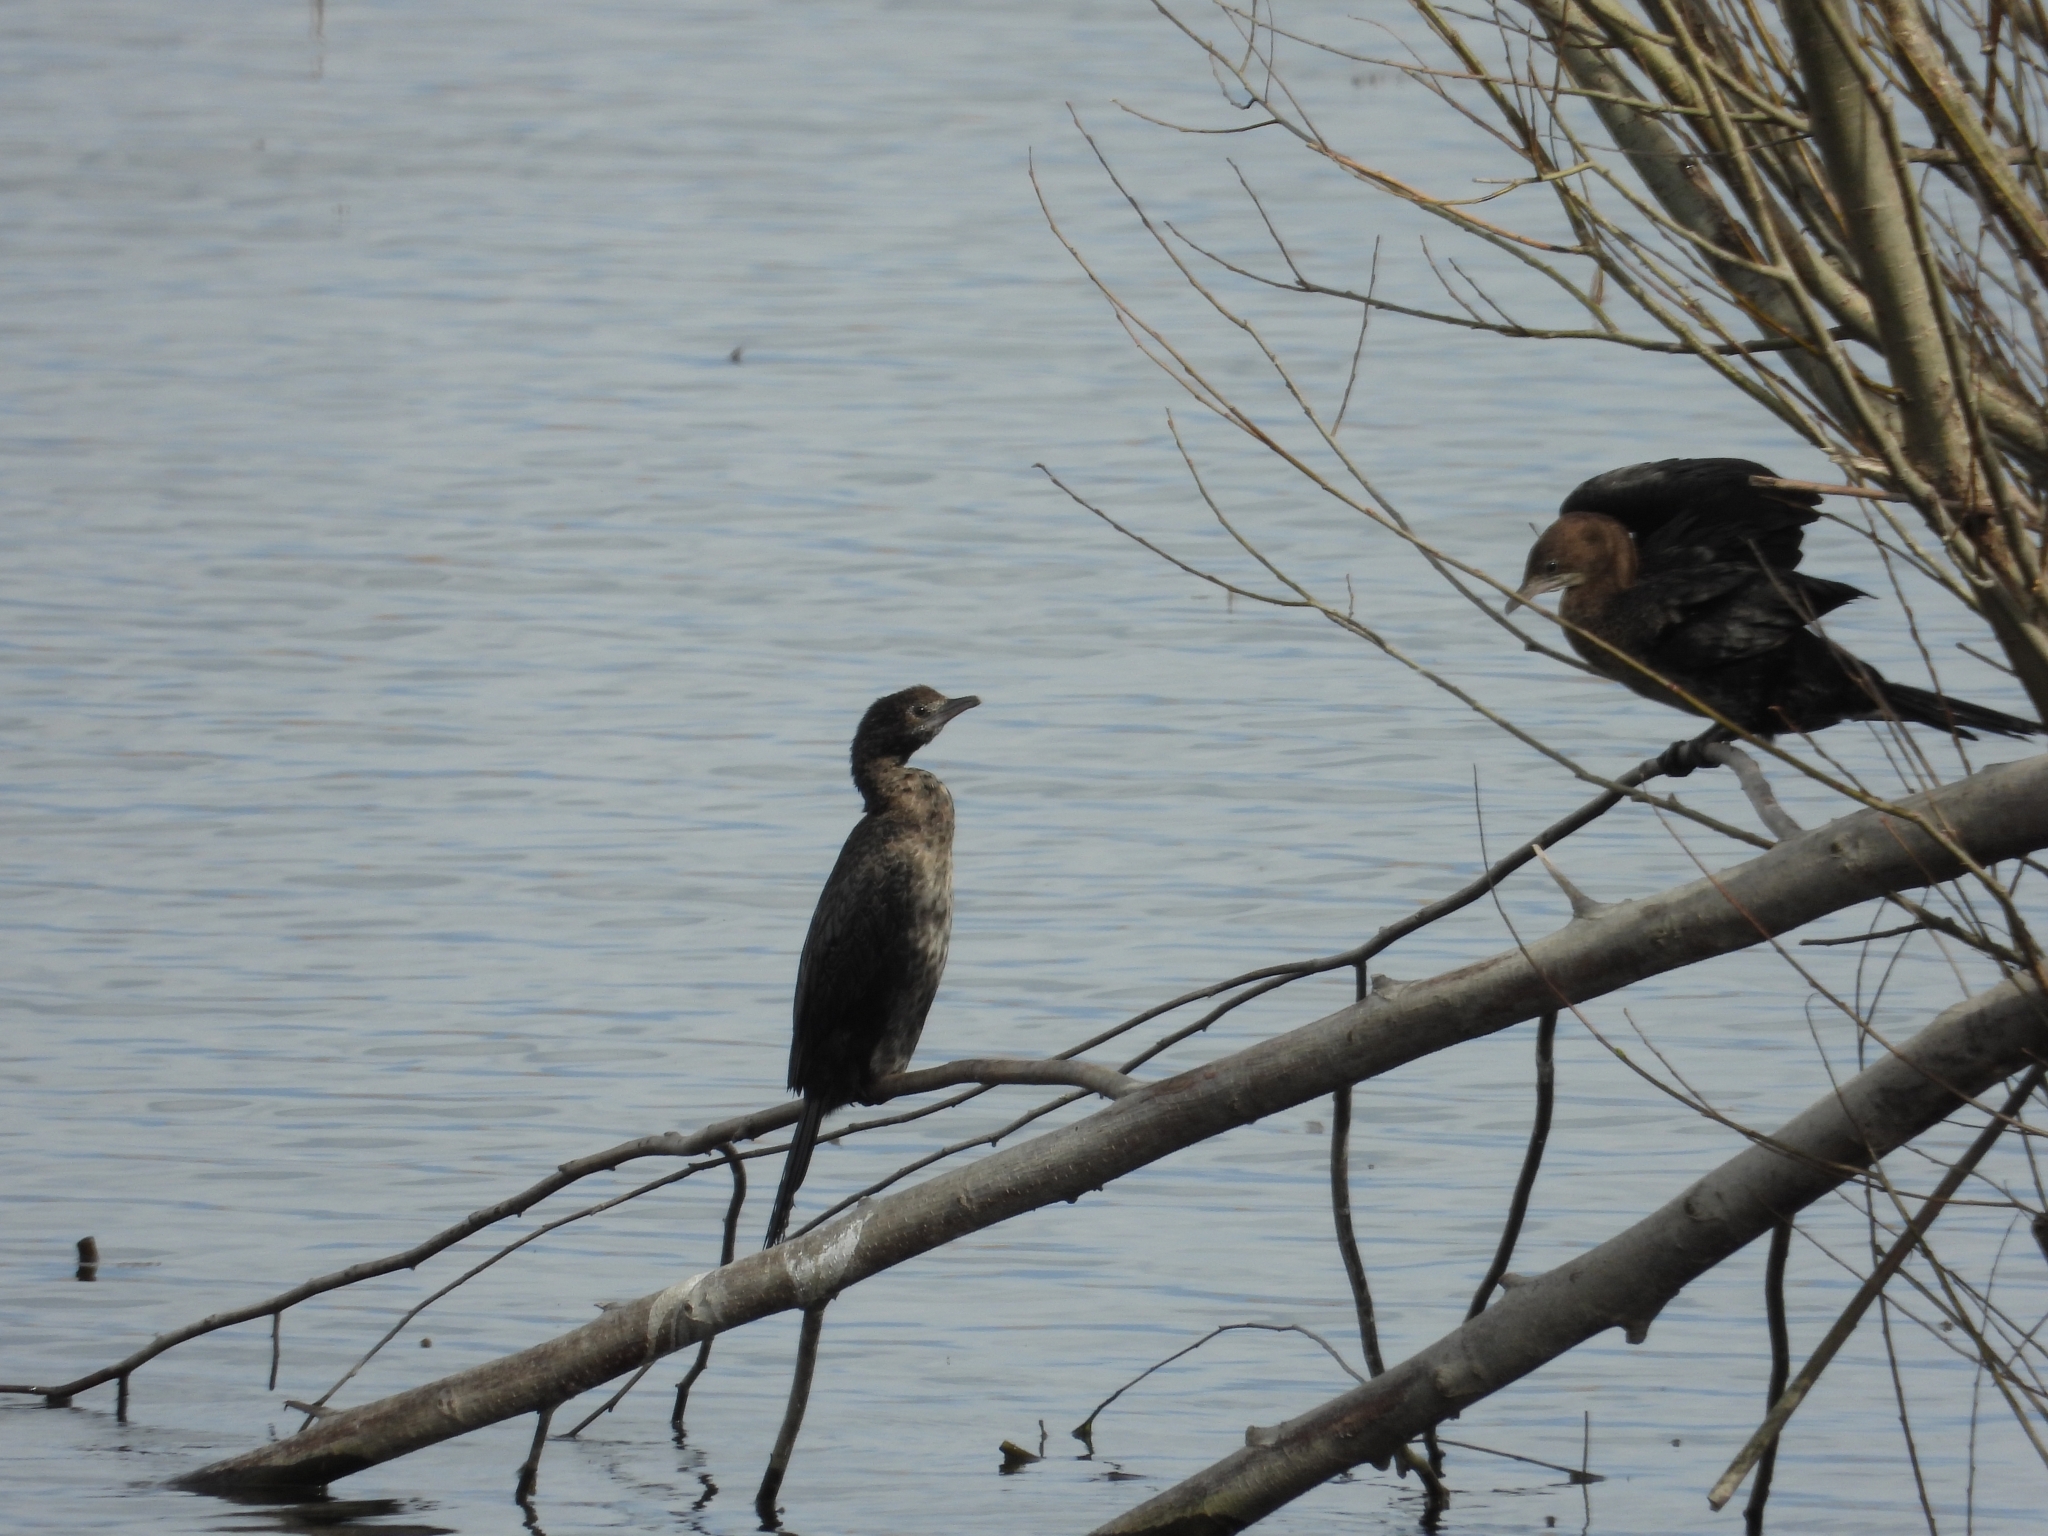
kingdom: Animalia
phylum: Chordata
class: Aves
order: Suliformes
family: Phalacrocoracidae
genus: Microcarbo
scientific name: Microcarbo pygmaeus
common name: Pygmy cormorant
